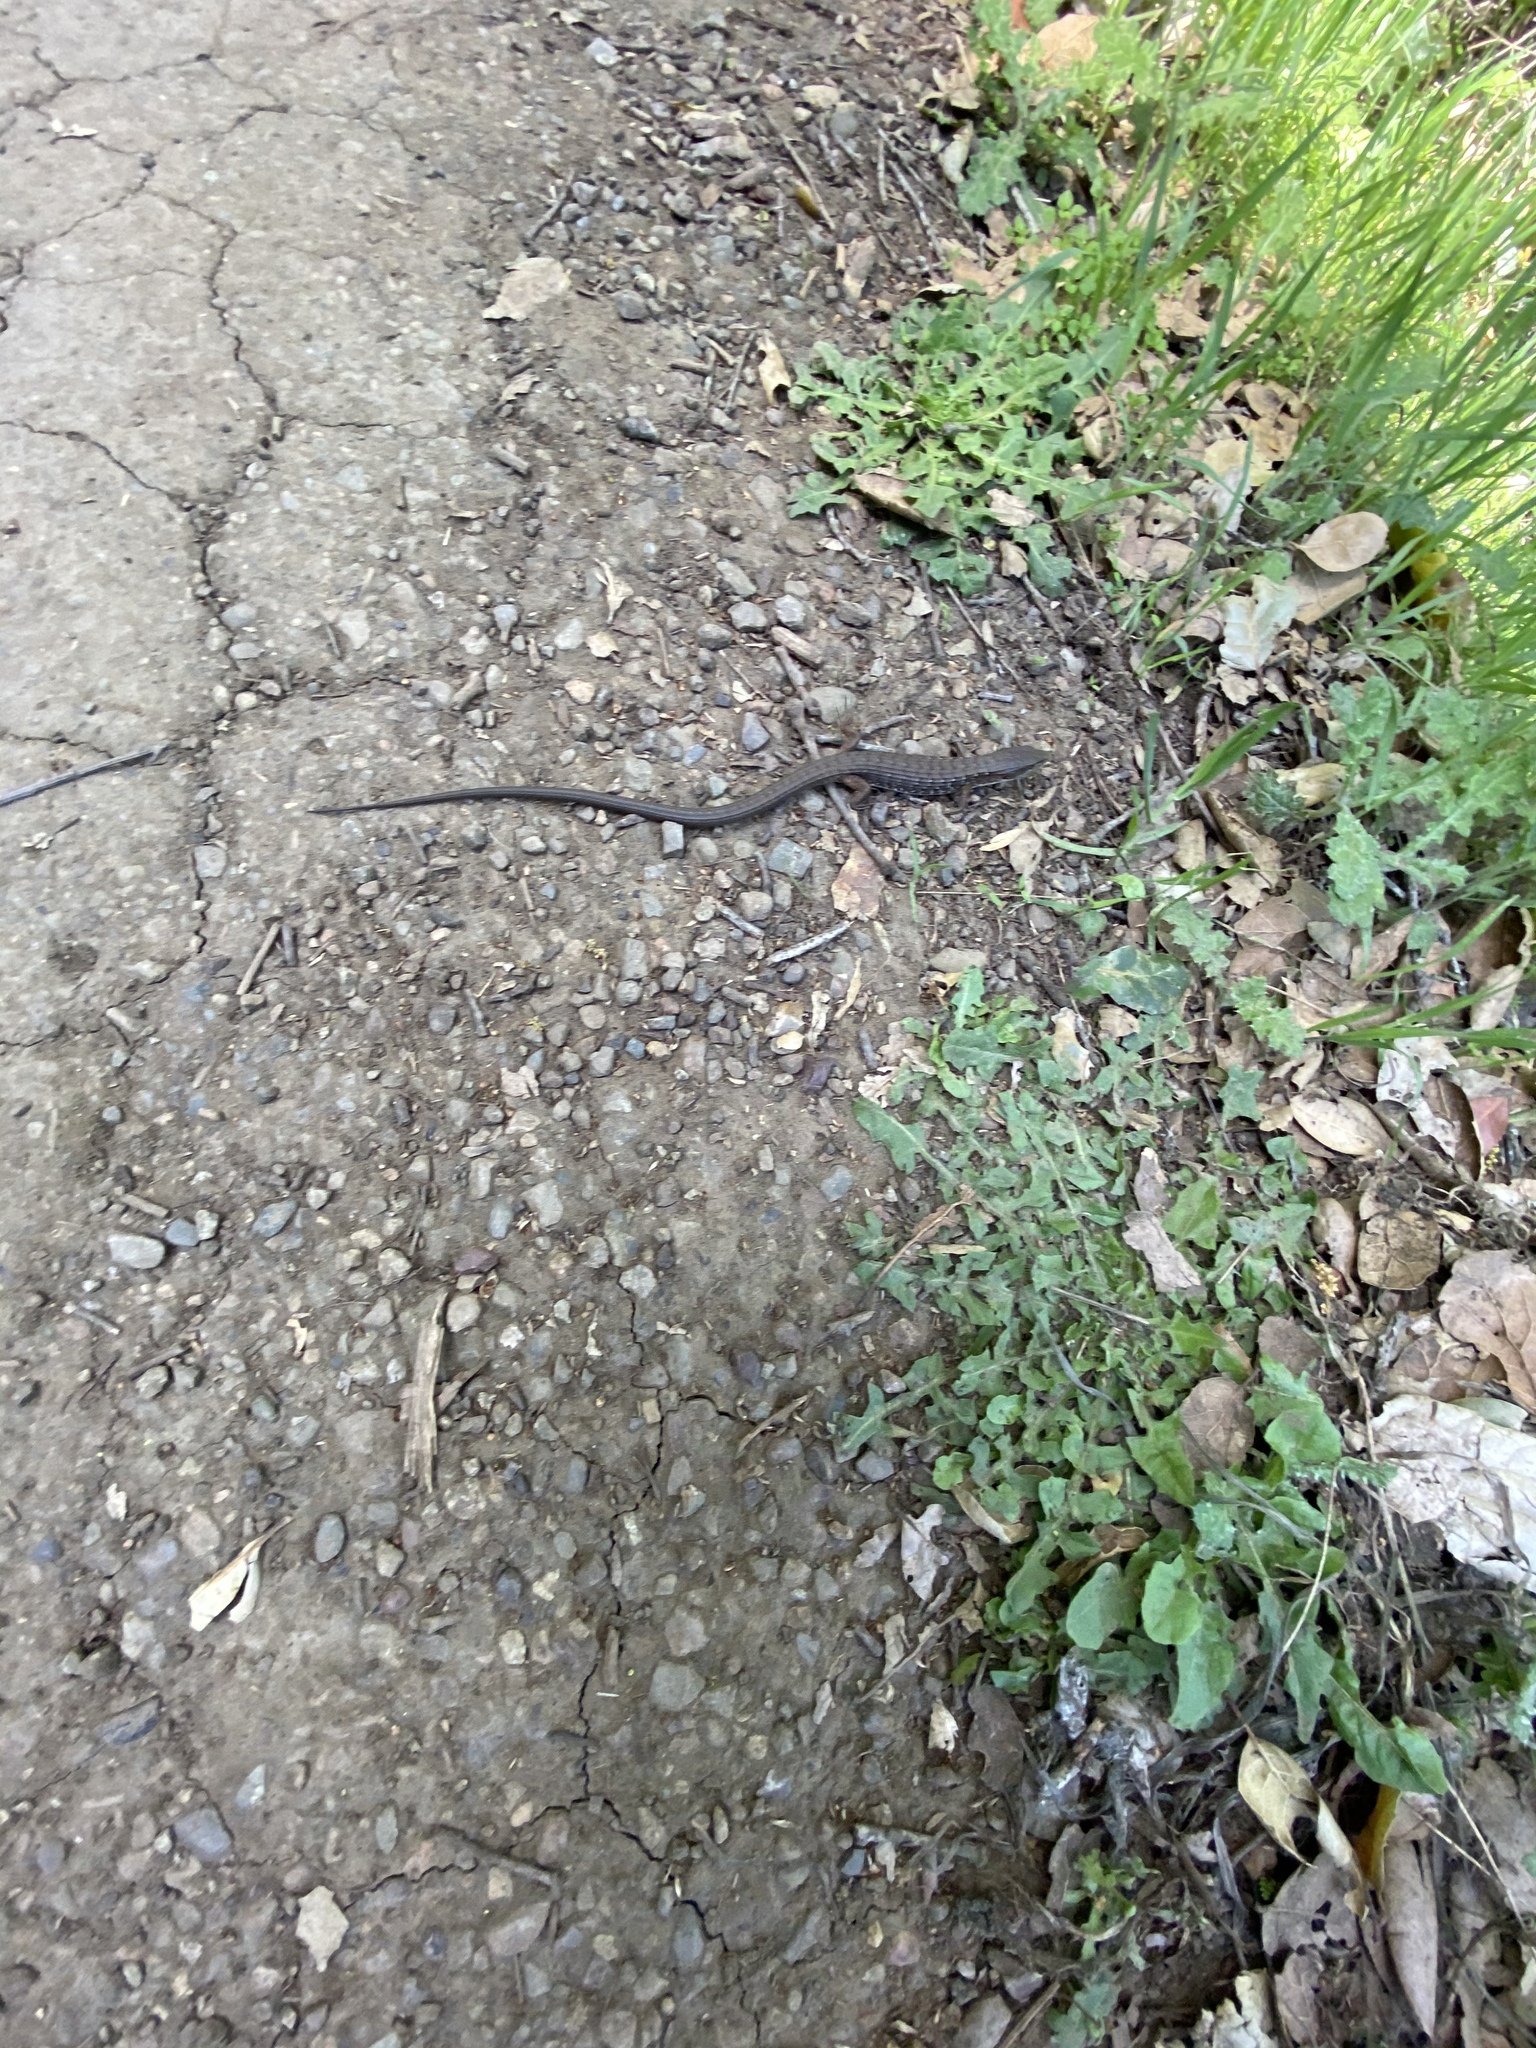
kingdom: Animalia
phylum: Chordata
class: Squamata
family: Anguidae
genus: Elgaria
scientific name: Elgaria multicarinata
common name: Southern alligator lizard
